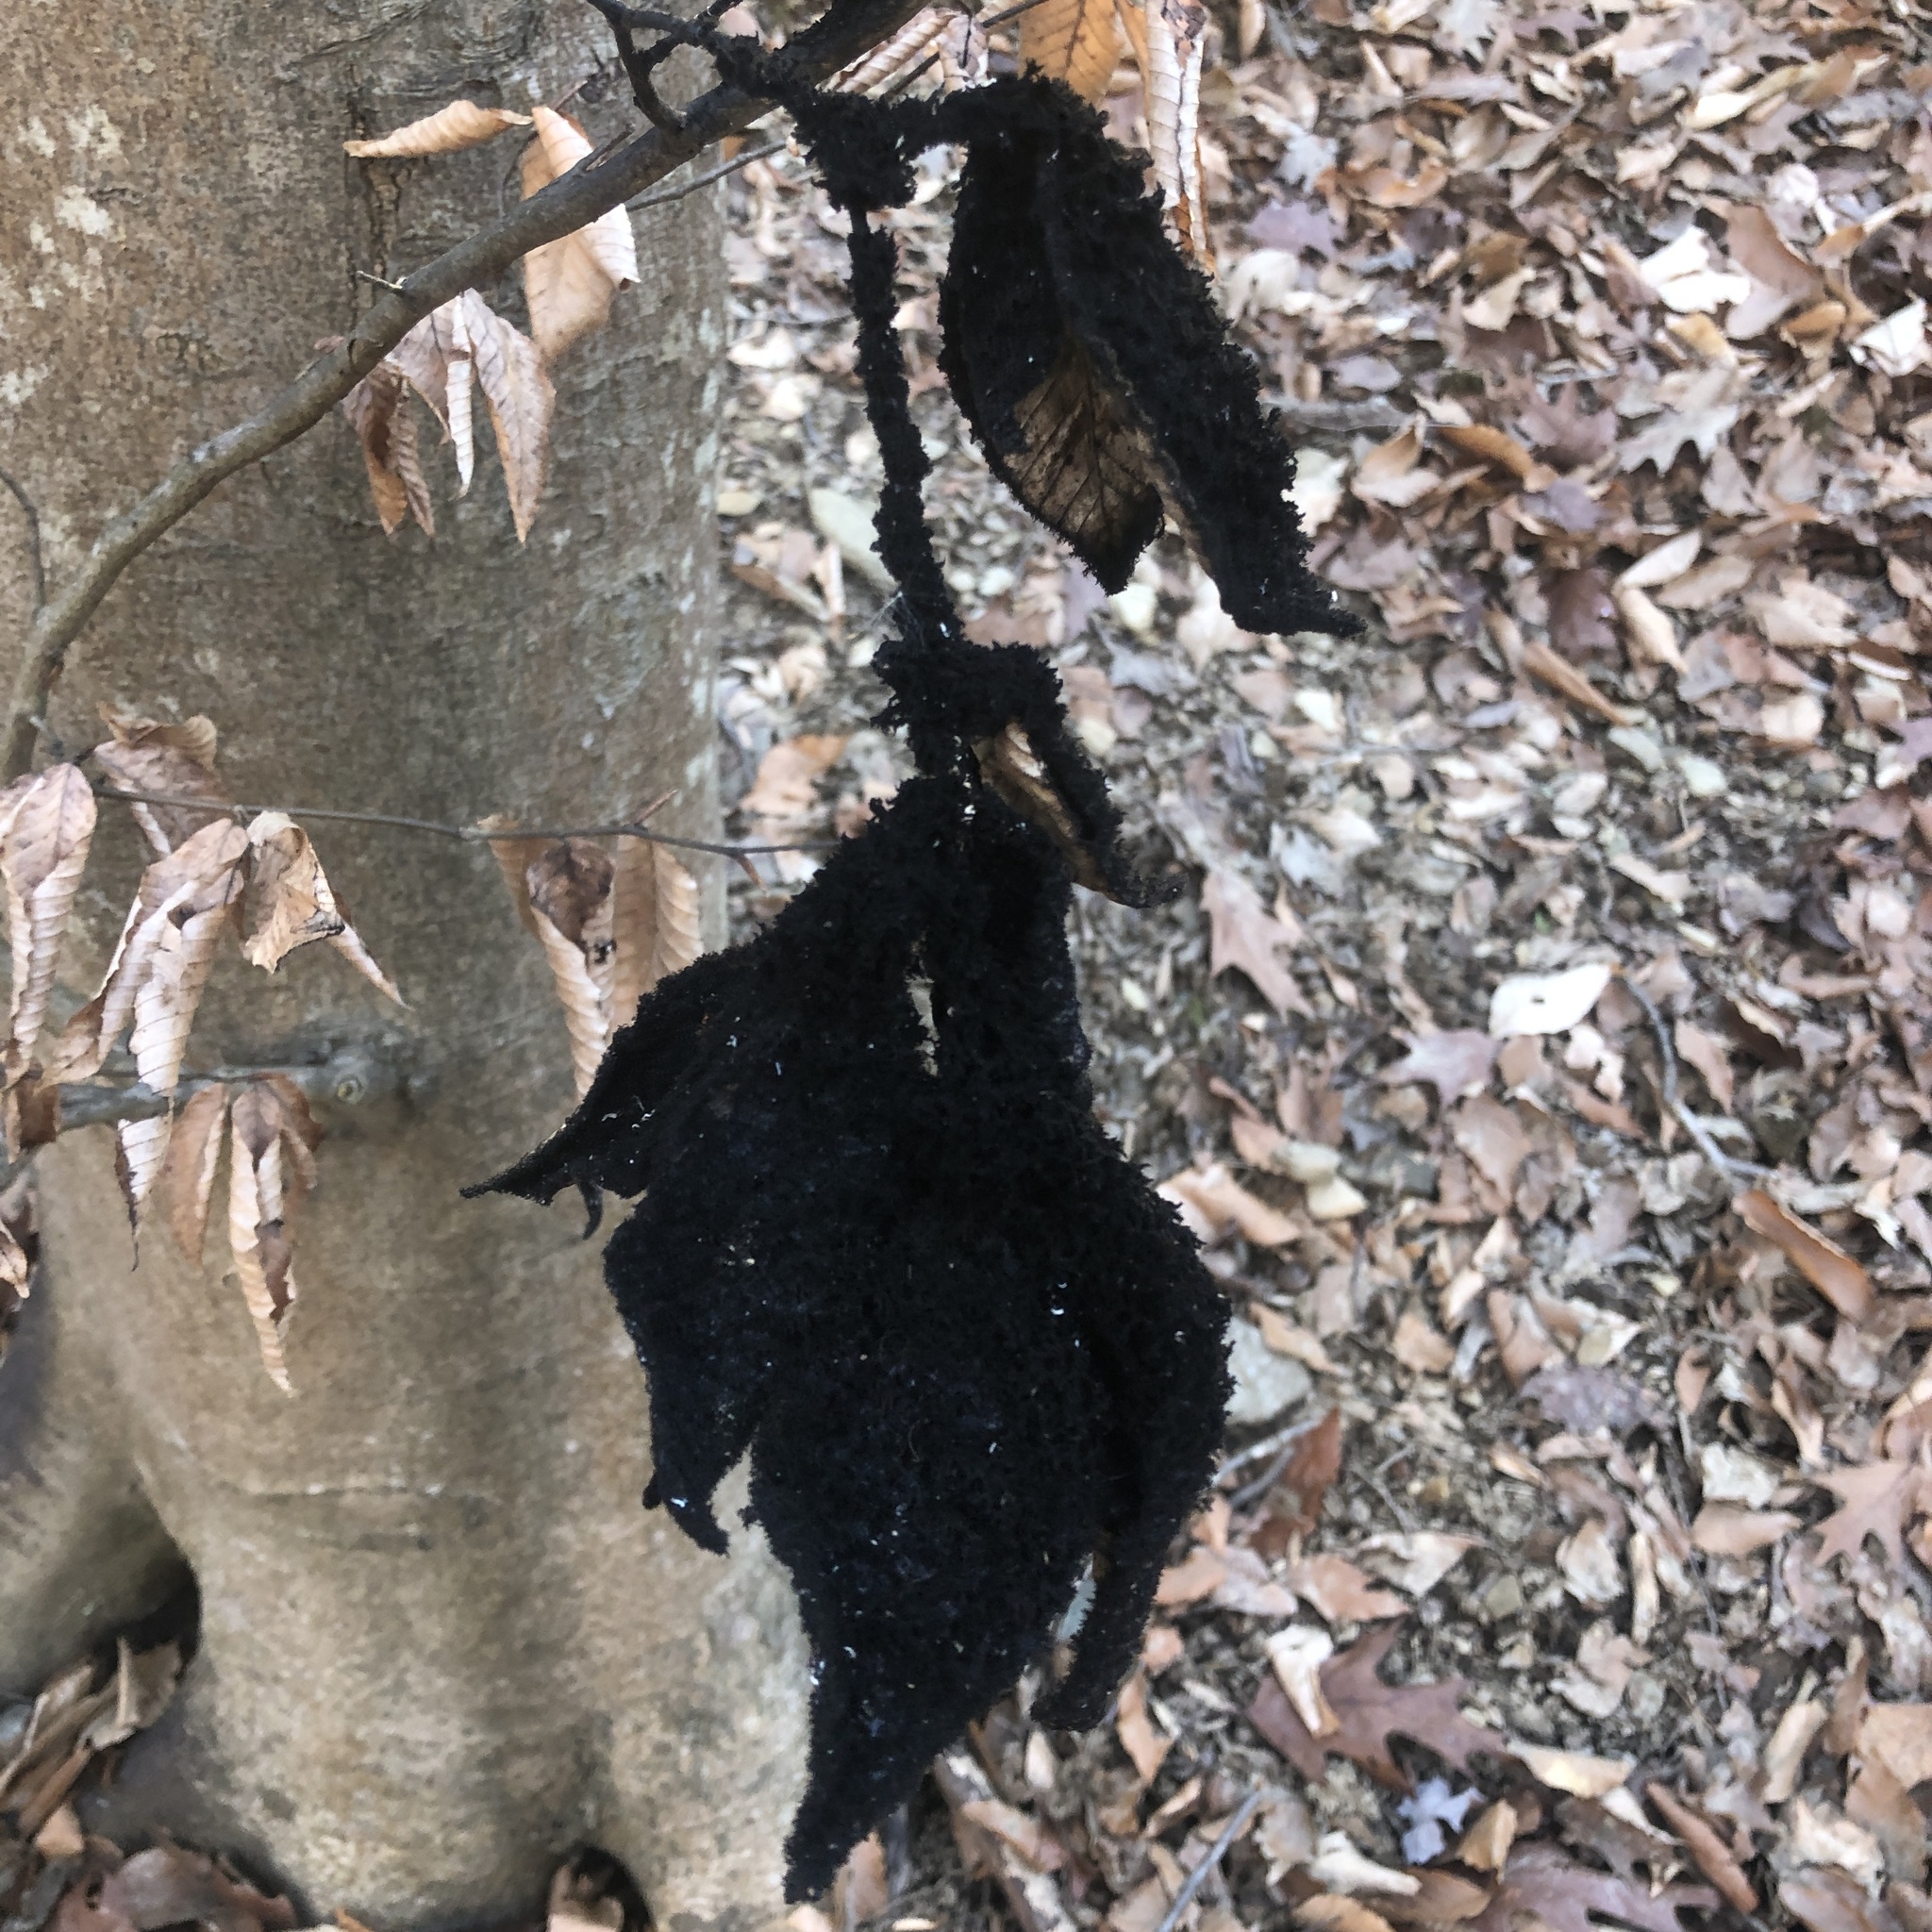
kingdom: Fungi
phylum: Ascomycota
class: Dothideomycetes
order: Capnodiales
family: Capnodiaceae
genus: Scorias
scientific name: Scorias spongiosa
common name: Black sooty mold
